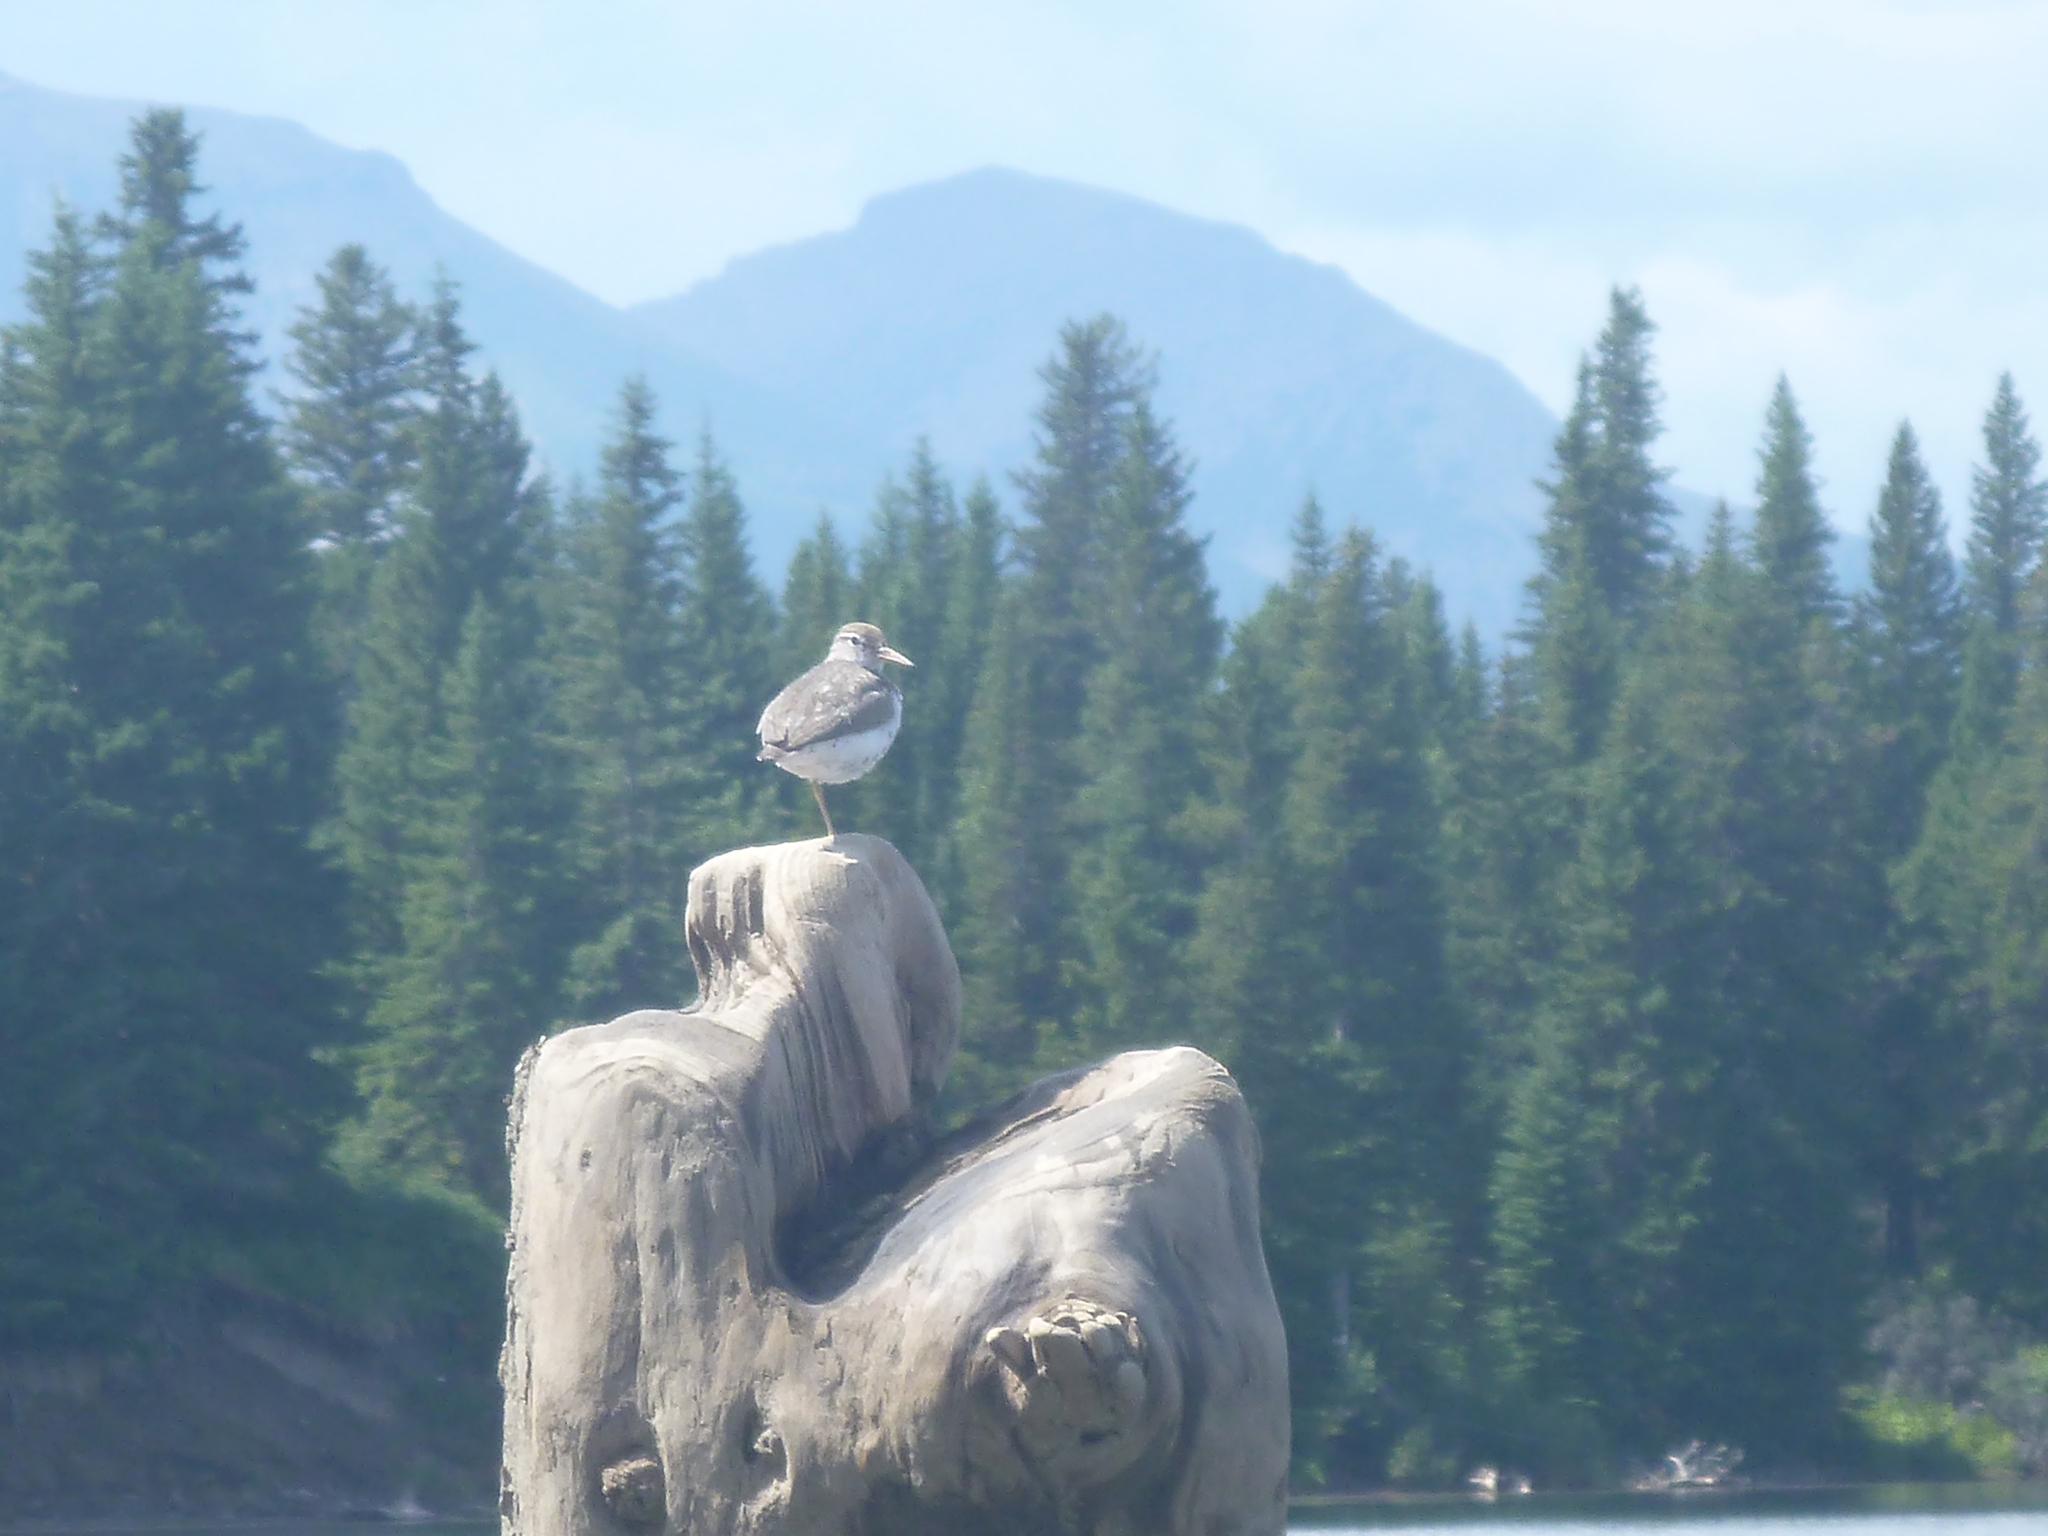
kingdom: Animalia
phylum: Chordata
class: Aves
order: Charadriiformes
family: Scolopacidae
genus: Actitis
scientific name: Actitis macularius
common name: Spotted sandpiper
